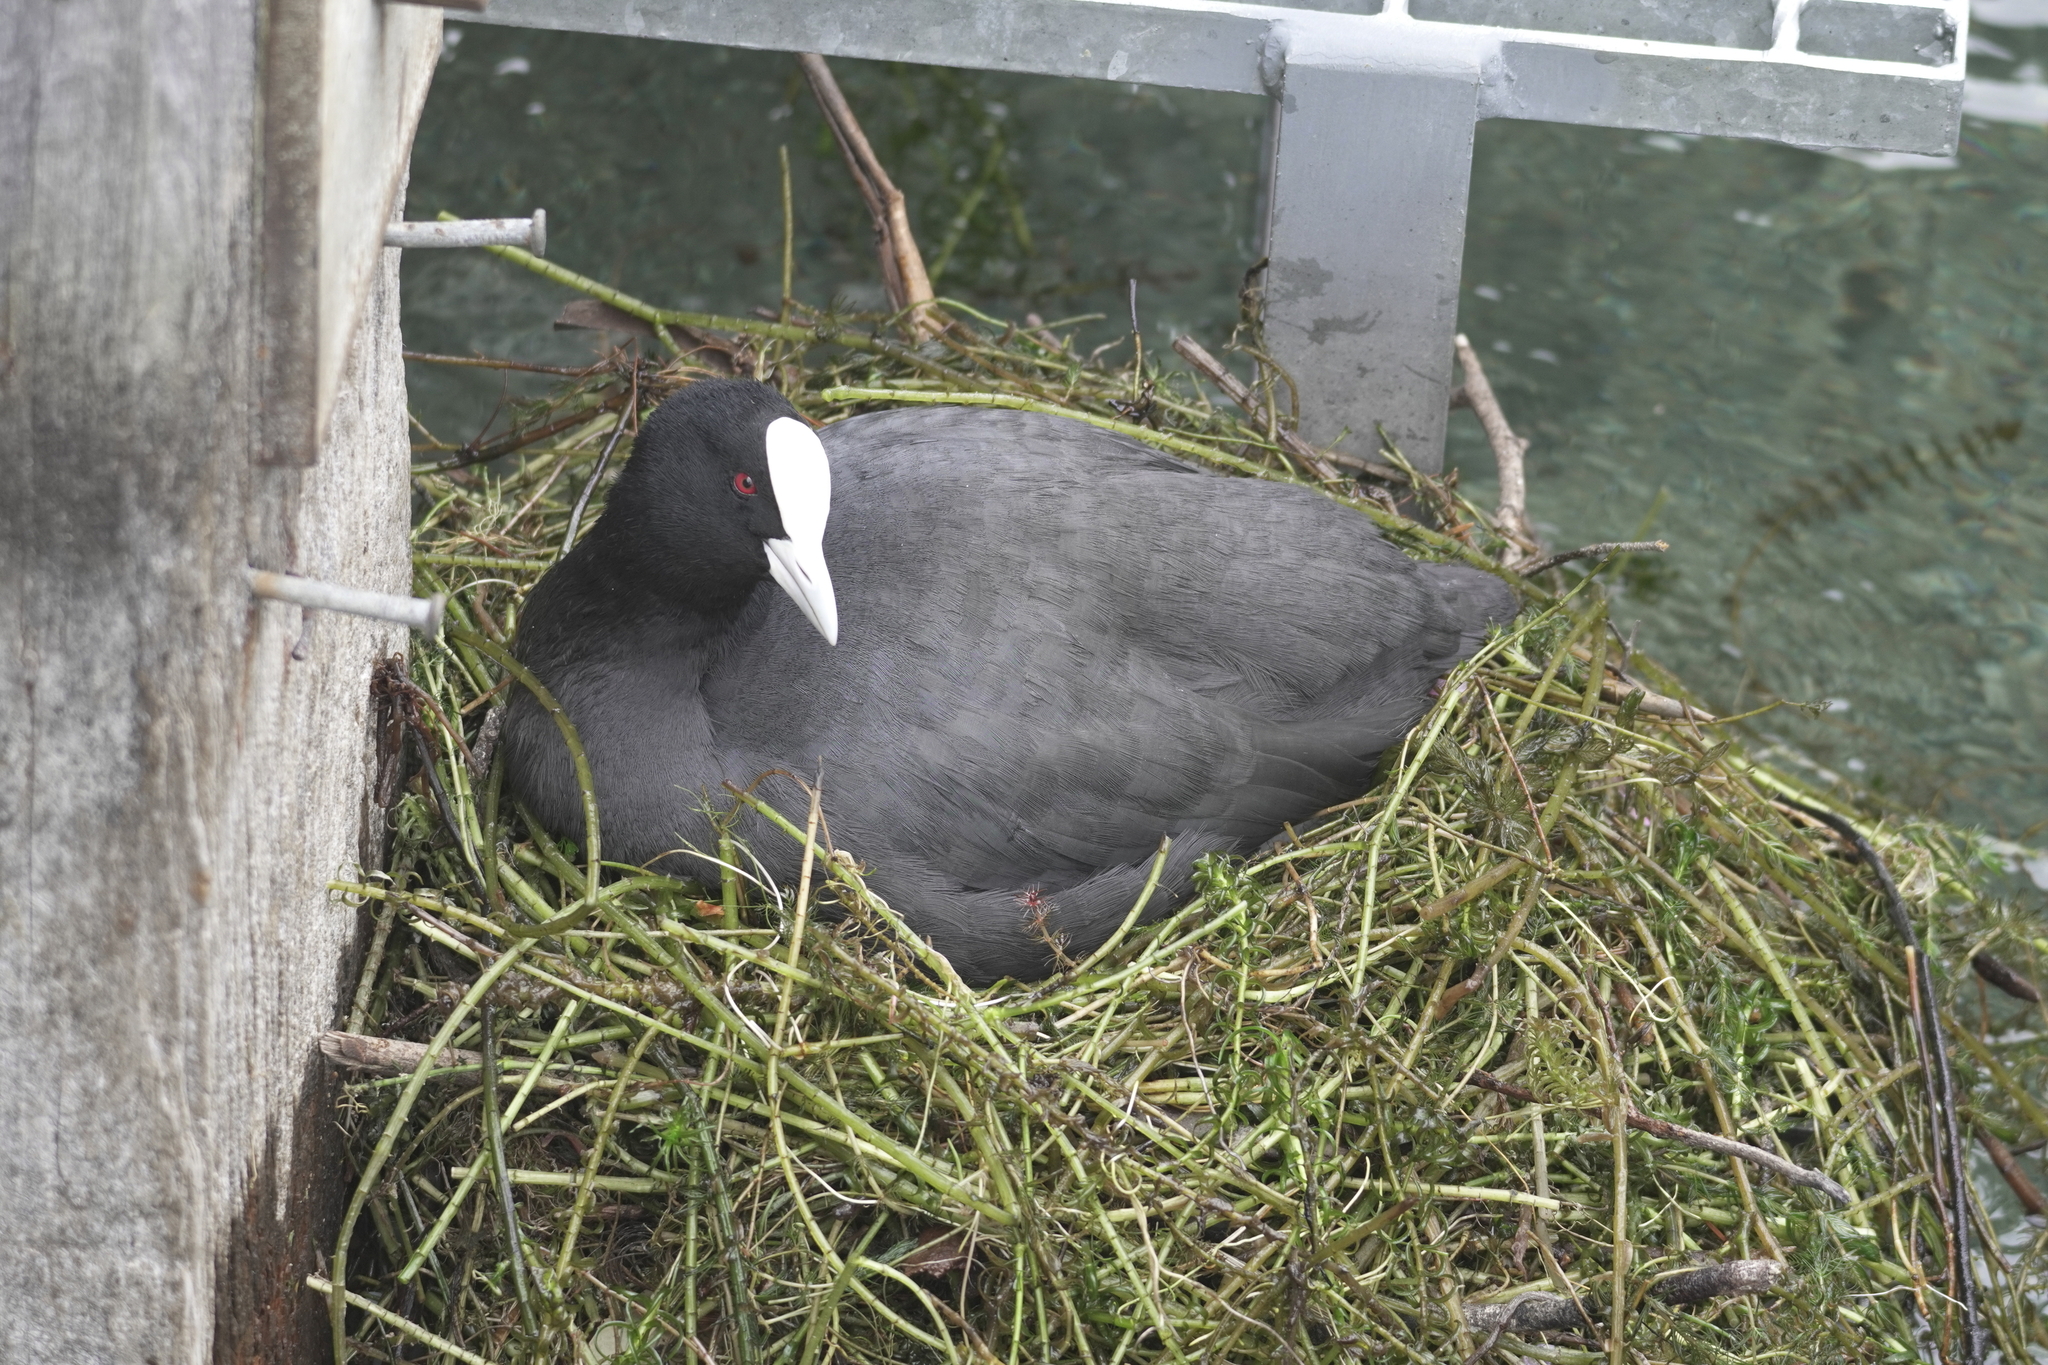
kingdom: Animalia
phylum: Chordata
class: Aves
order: Gruiformes
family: Rallidae
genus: Fulica
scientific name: Fulica atra
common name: Eurasian coot
